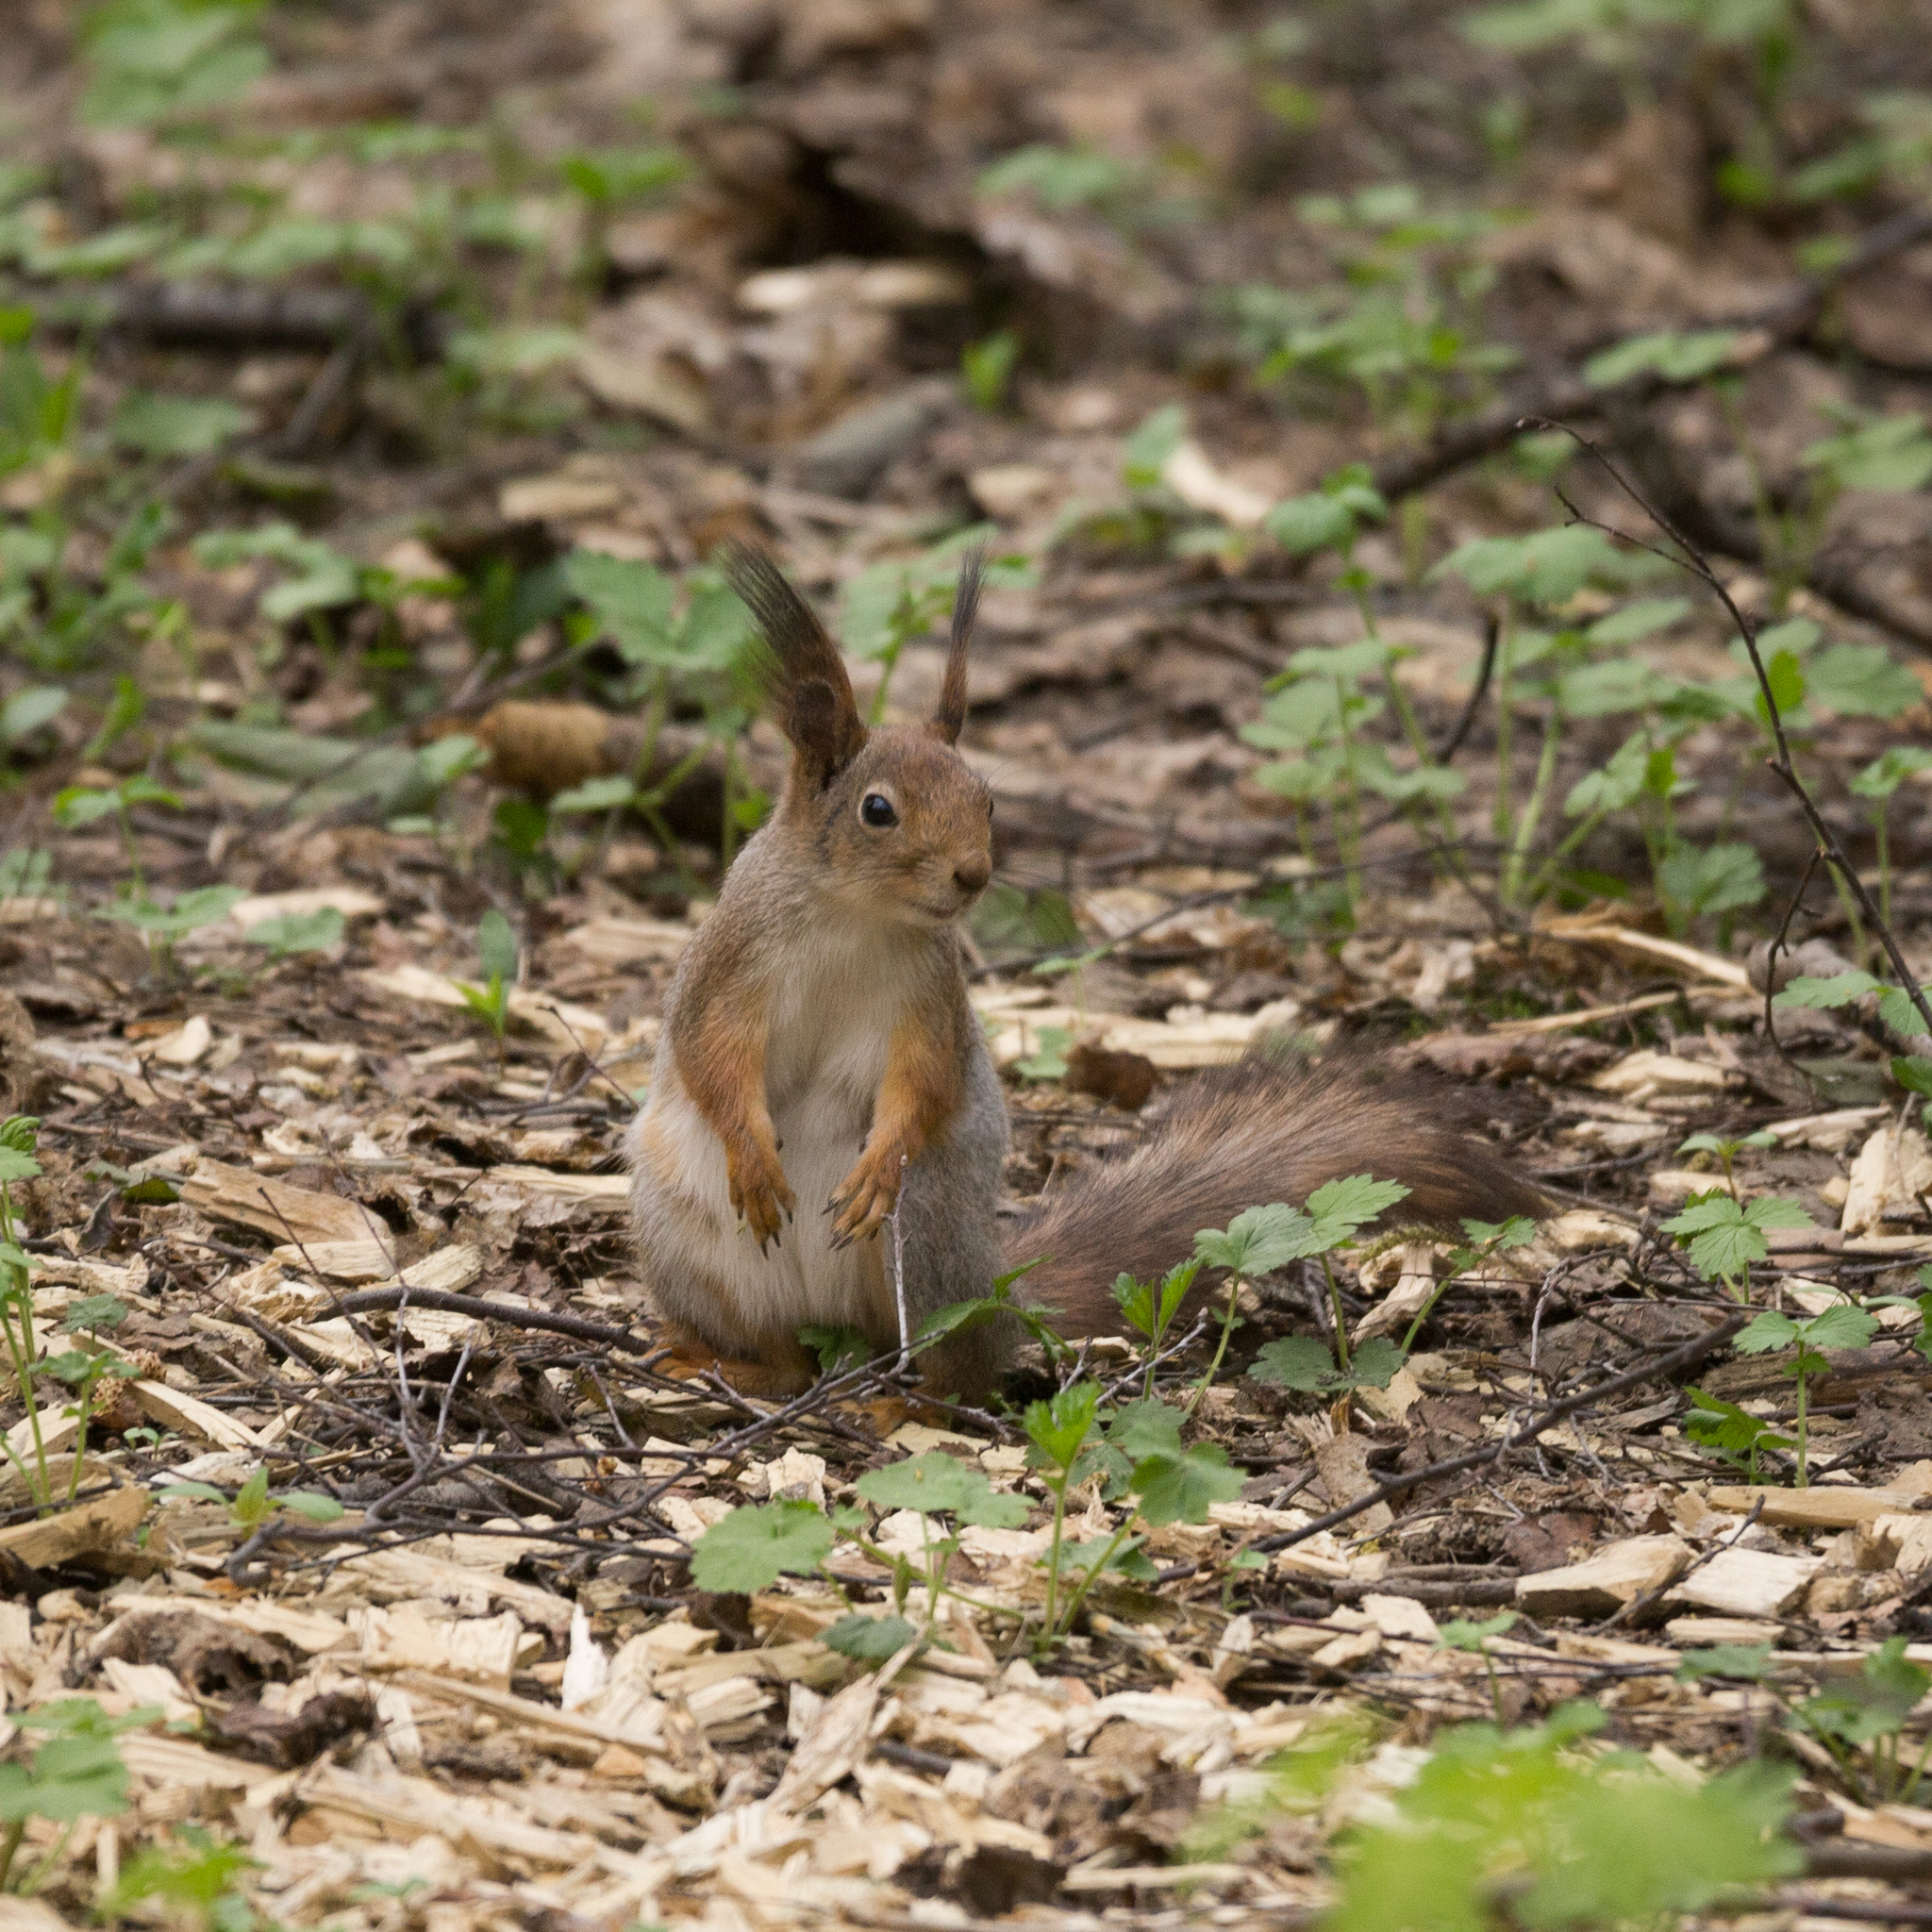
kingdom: Animalia
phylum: Chordata
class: Mammalia
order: Rodentia
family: Sciuridae
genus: Sciurus
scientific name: Sciurus vulgaris
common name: Eurasian red squirrel
